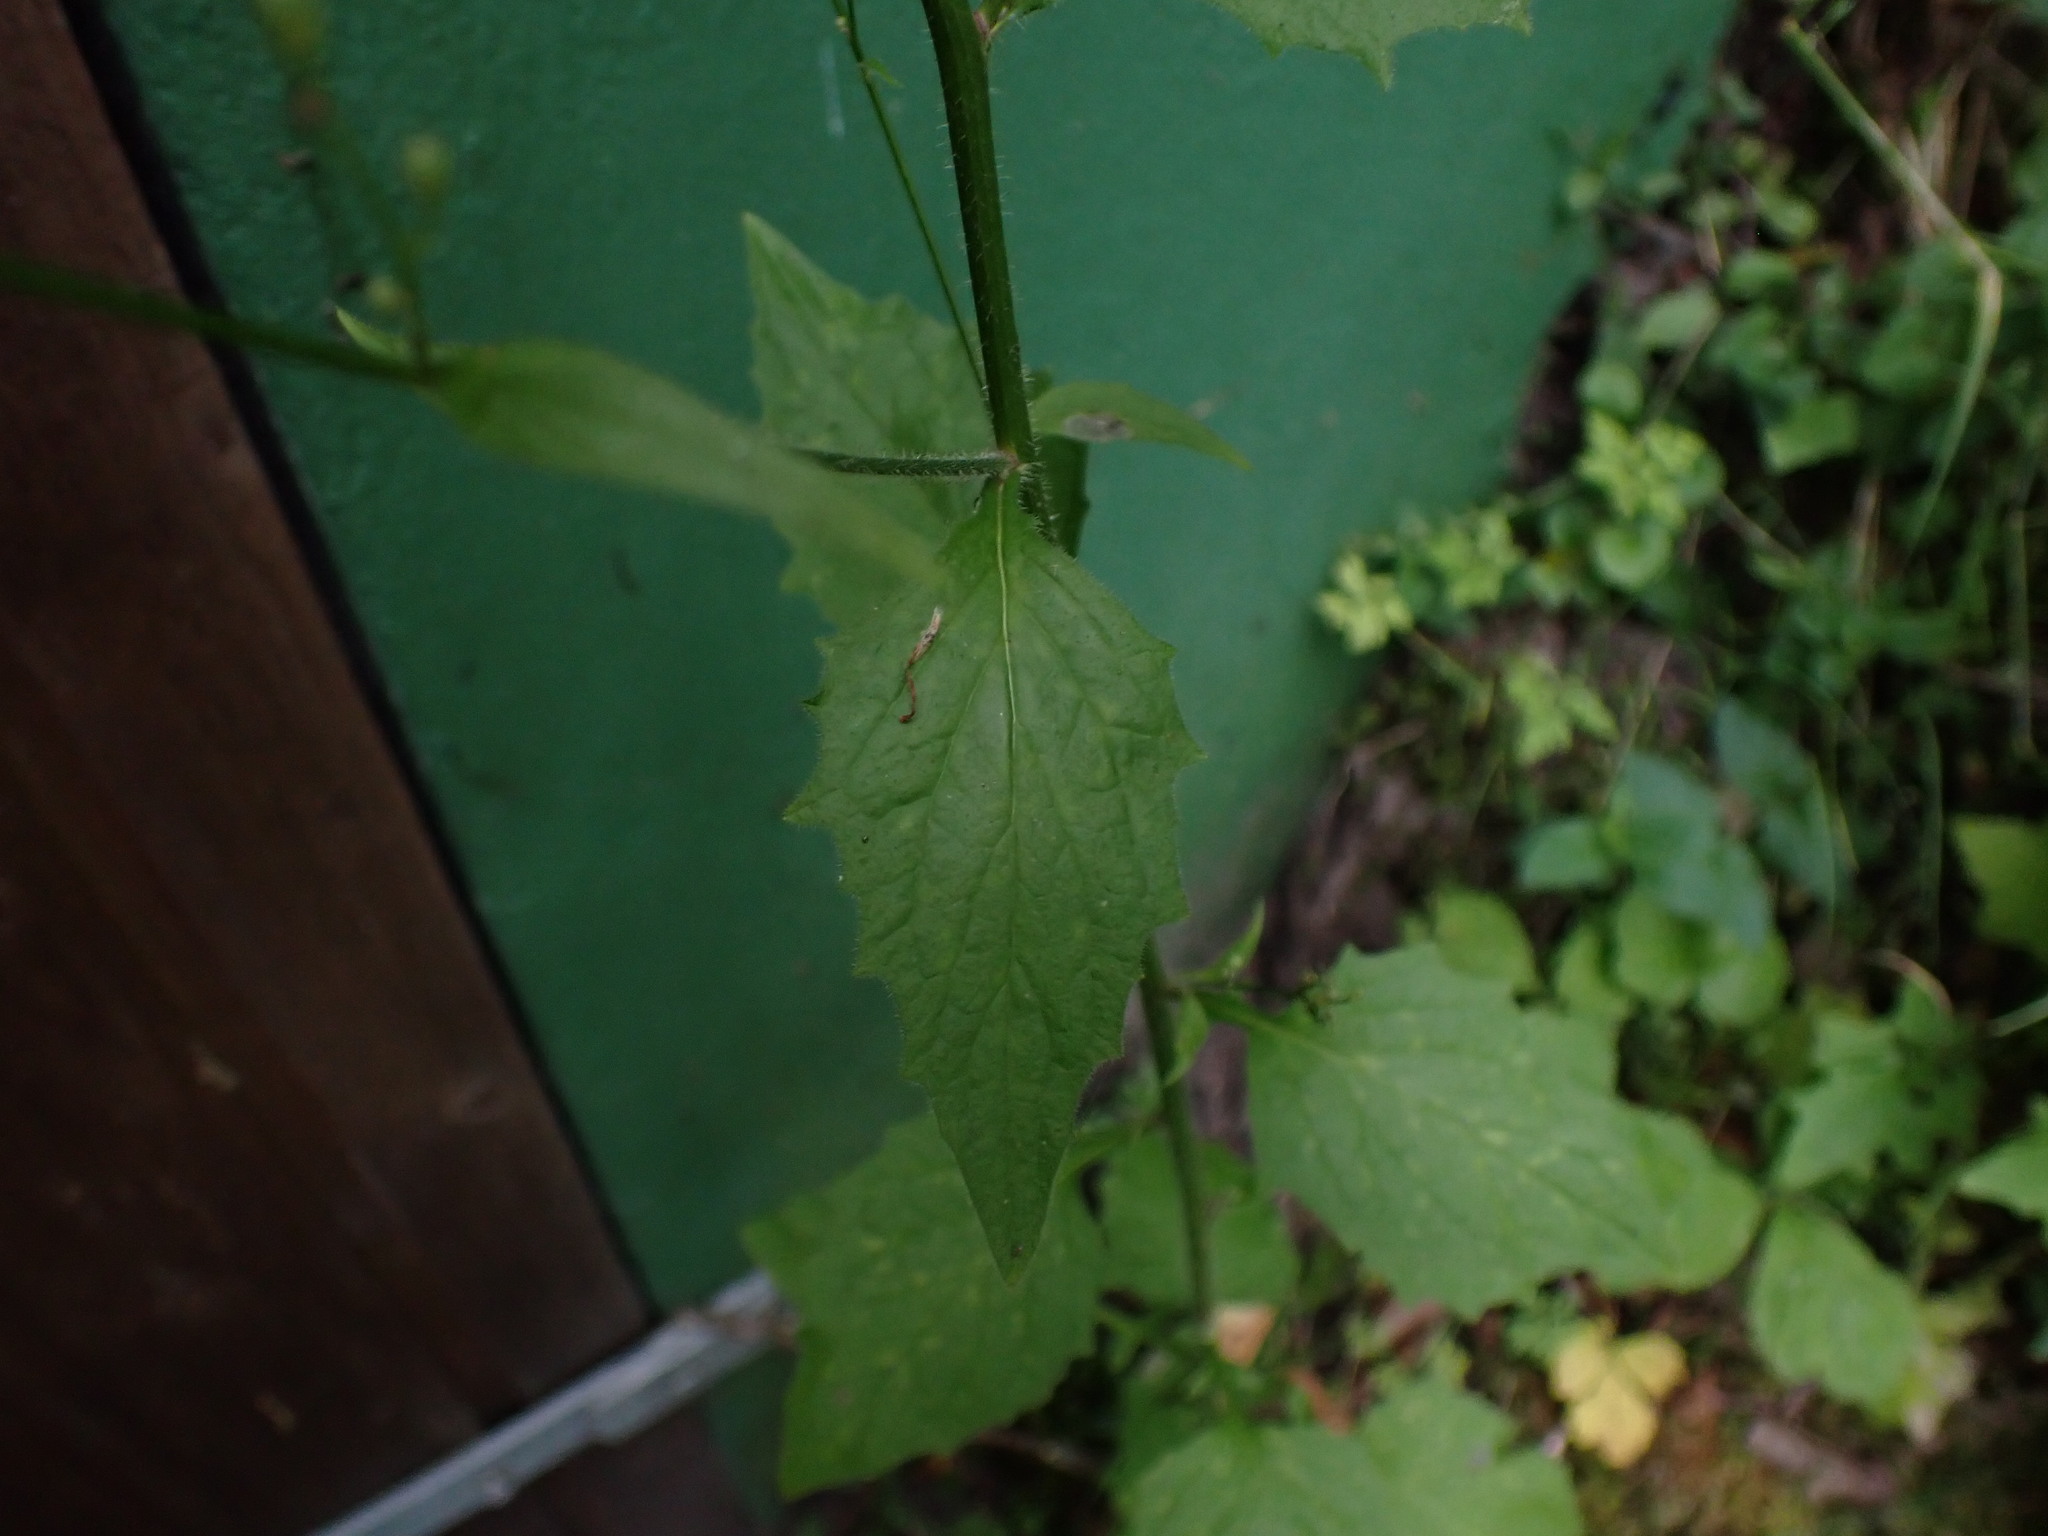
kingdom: Plantae
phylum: Tracheophyta
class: Magnoliopsida
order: Asterales
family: Asteraceae
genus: Lapsana
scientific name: Lapsana communis
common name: Nipplewort
